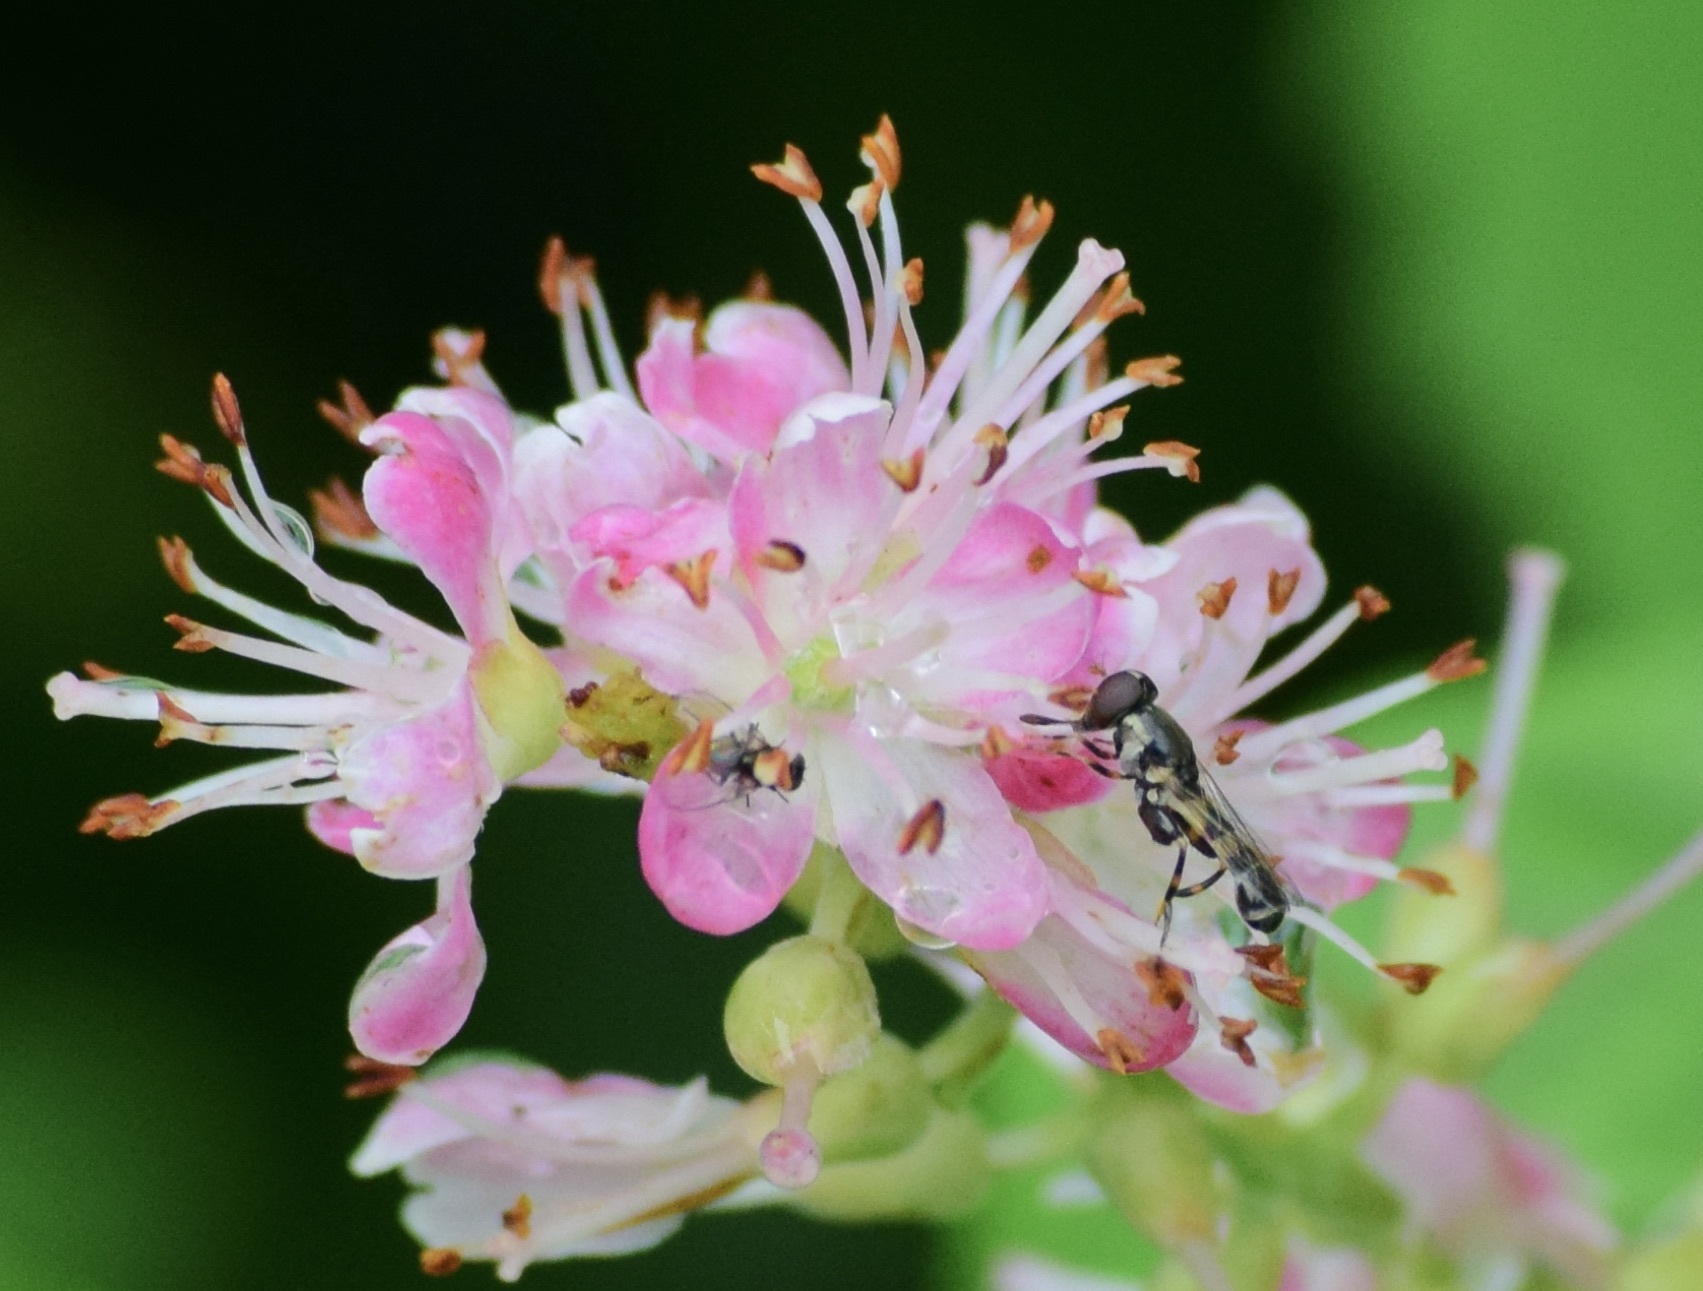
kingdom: Animalia
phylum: Arthropoda
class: Insecta
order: Diptera
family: Syrphidae
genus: Syritta
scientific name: Syritta pipiens
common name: Hover fly
